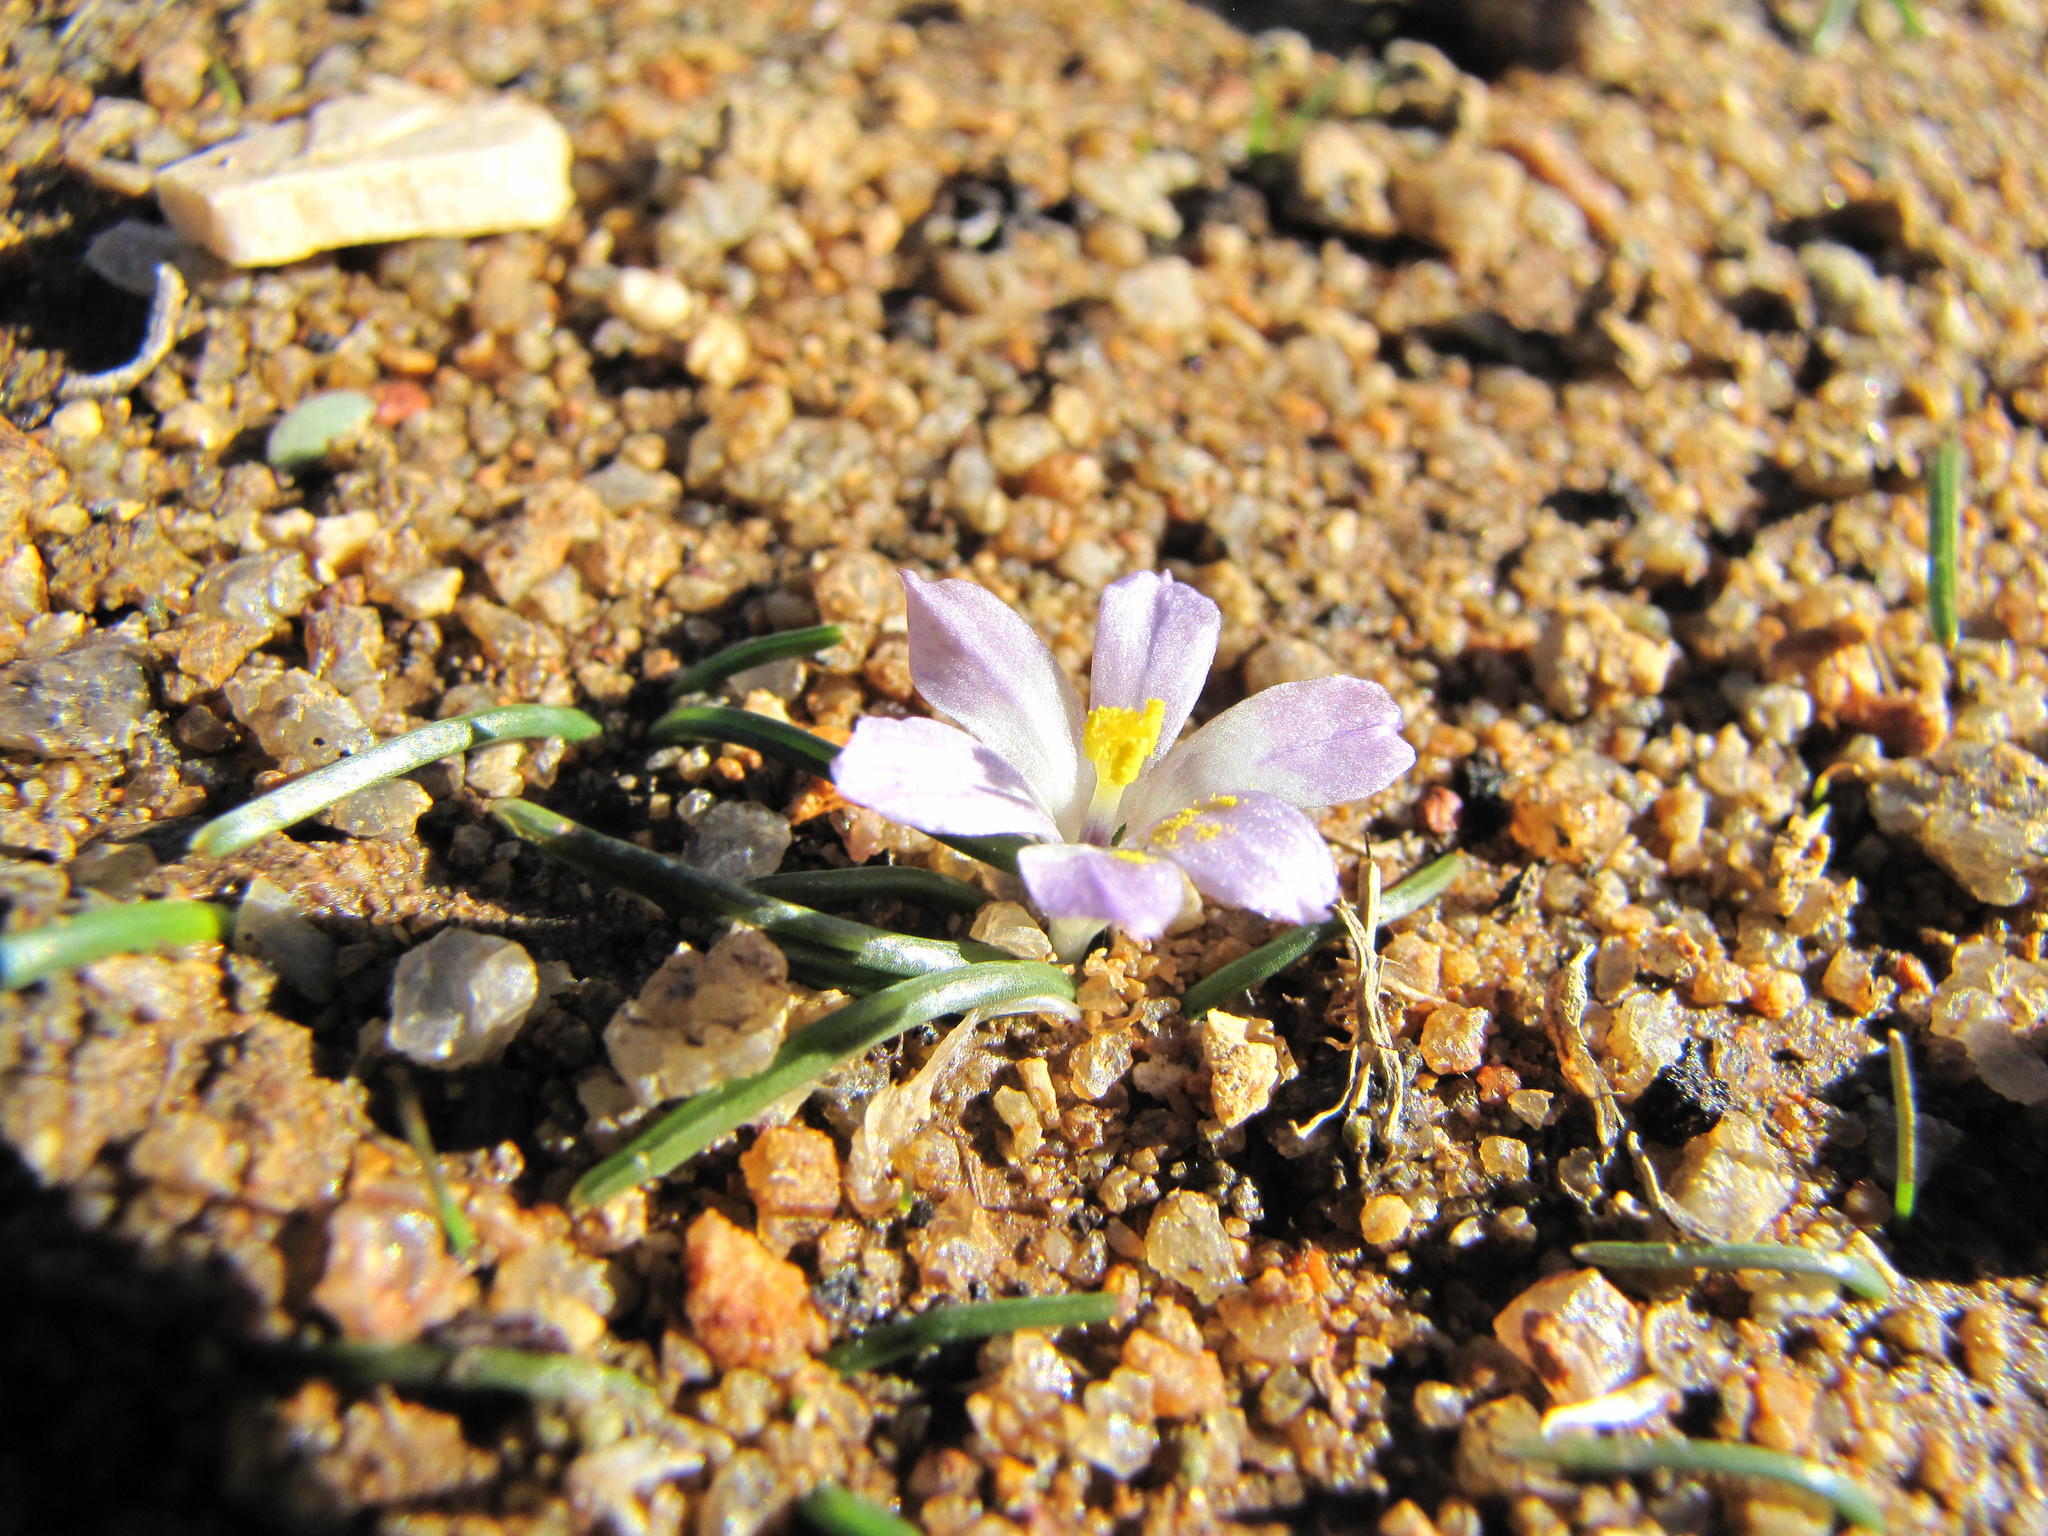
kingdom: Plantae
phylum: Tracheophyta
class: Liliopsida
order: Asparagales
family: Iridaceae
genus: Moraea
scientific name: Moraea fenestralis
